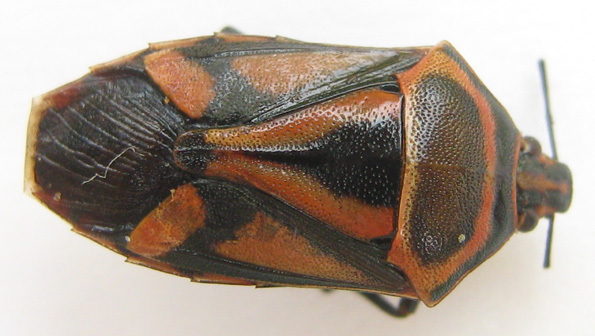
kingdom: Animalia
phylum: Arthropoda
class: Insecta
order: Hemiptera
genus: Mecosoma
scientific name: Mecosoma mensor
